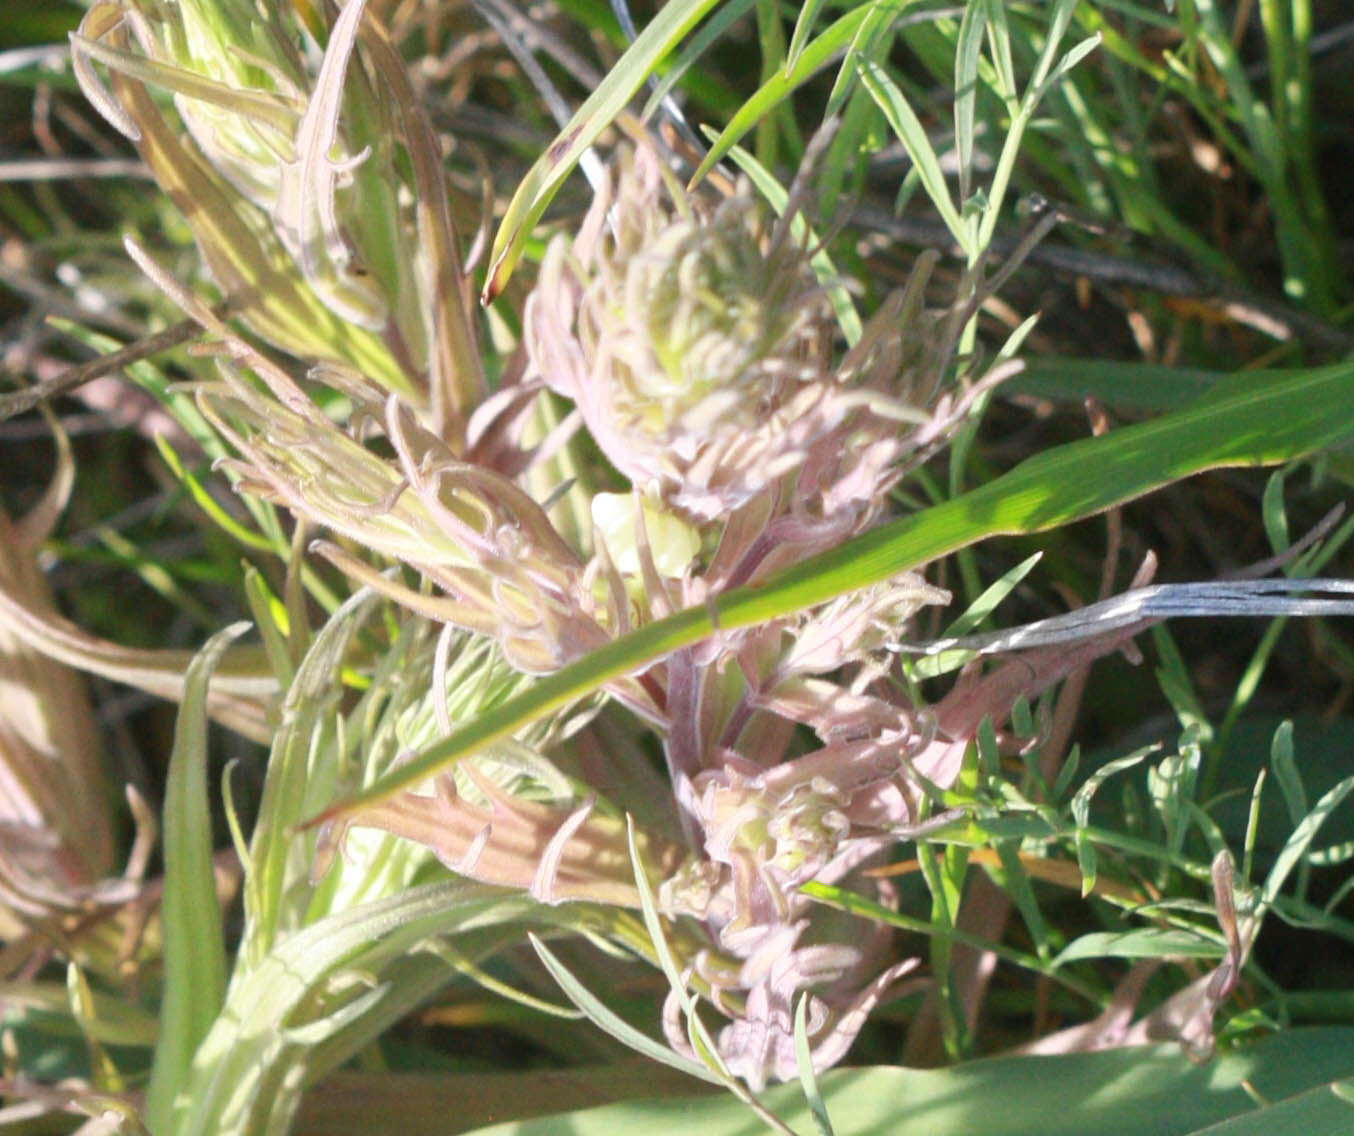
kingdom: Plantae
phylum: Tracheophyta
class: Magnoliopsida
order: Lamiales
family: Orobanchaceae
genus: Castilleja
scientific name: Castilleja rubicundula
